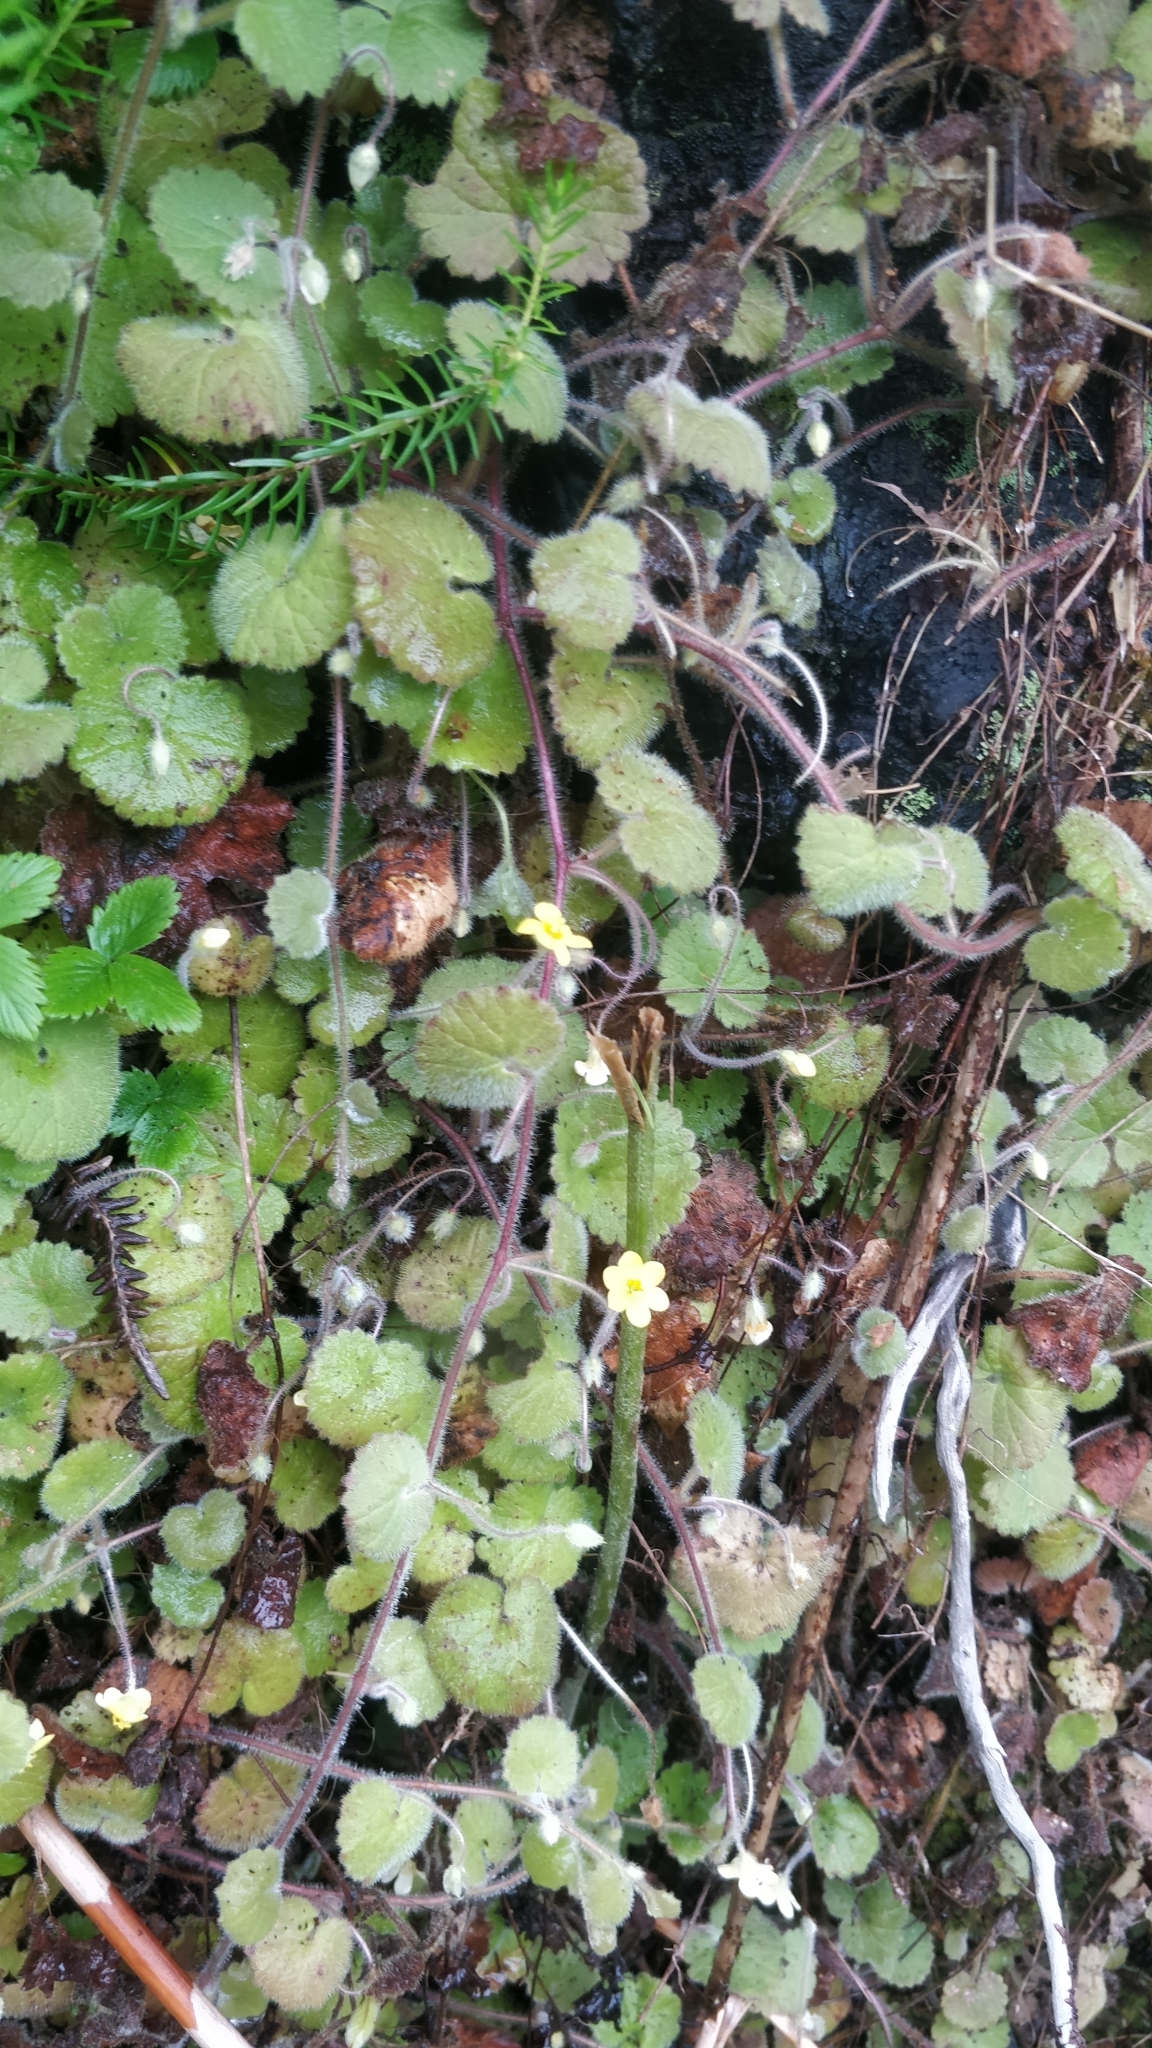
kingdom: Plantae
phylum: Tracheophyta
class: Magnoliopsida
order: Lamiales
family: Plantaginaceae
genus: Sibthorpia
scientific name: Sibthorpia peregrina
